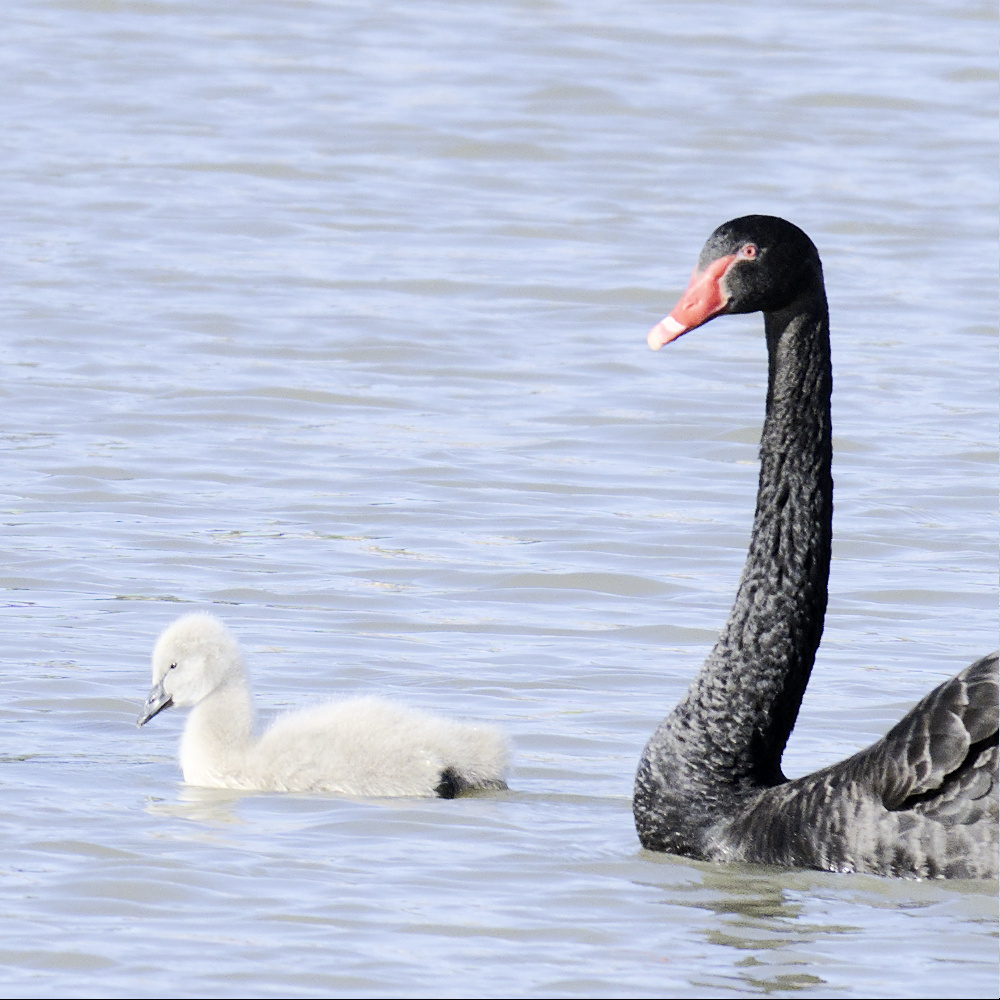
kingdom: Animalia
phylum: Chordata
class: Aves
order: Anseriformes
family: Anatidae
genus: Cygnus
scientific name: Cygnus atratus
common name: Black swan
